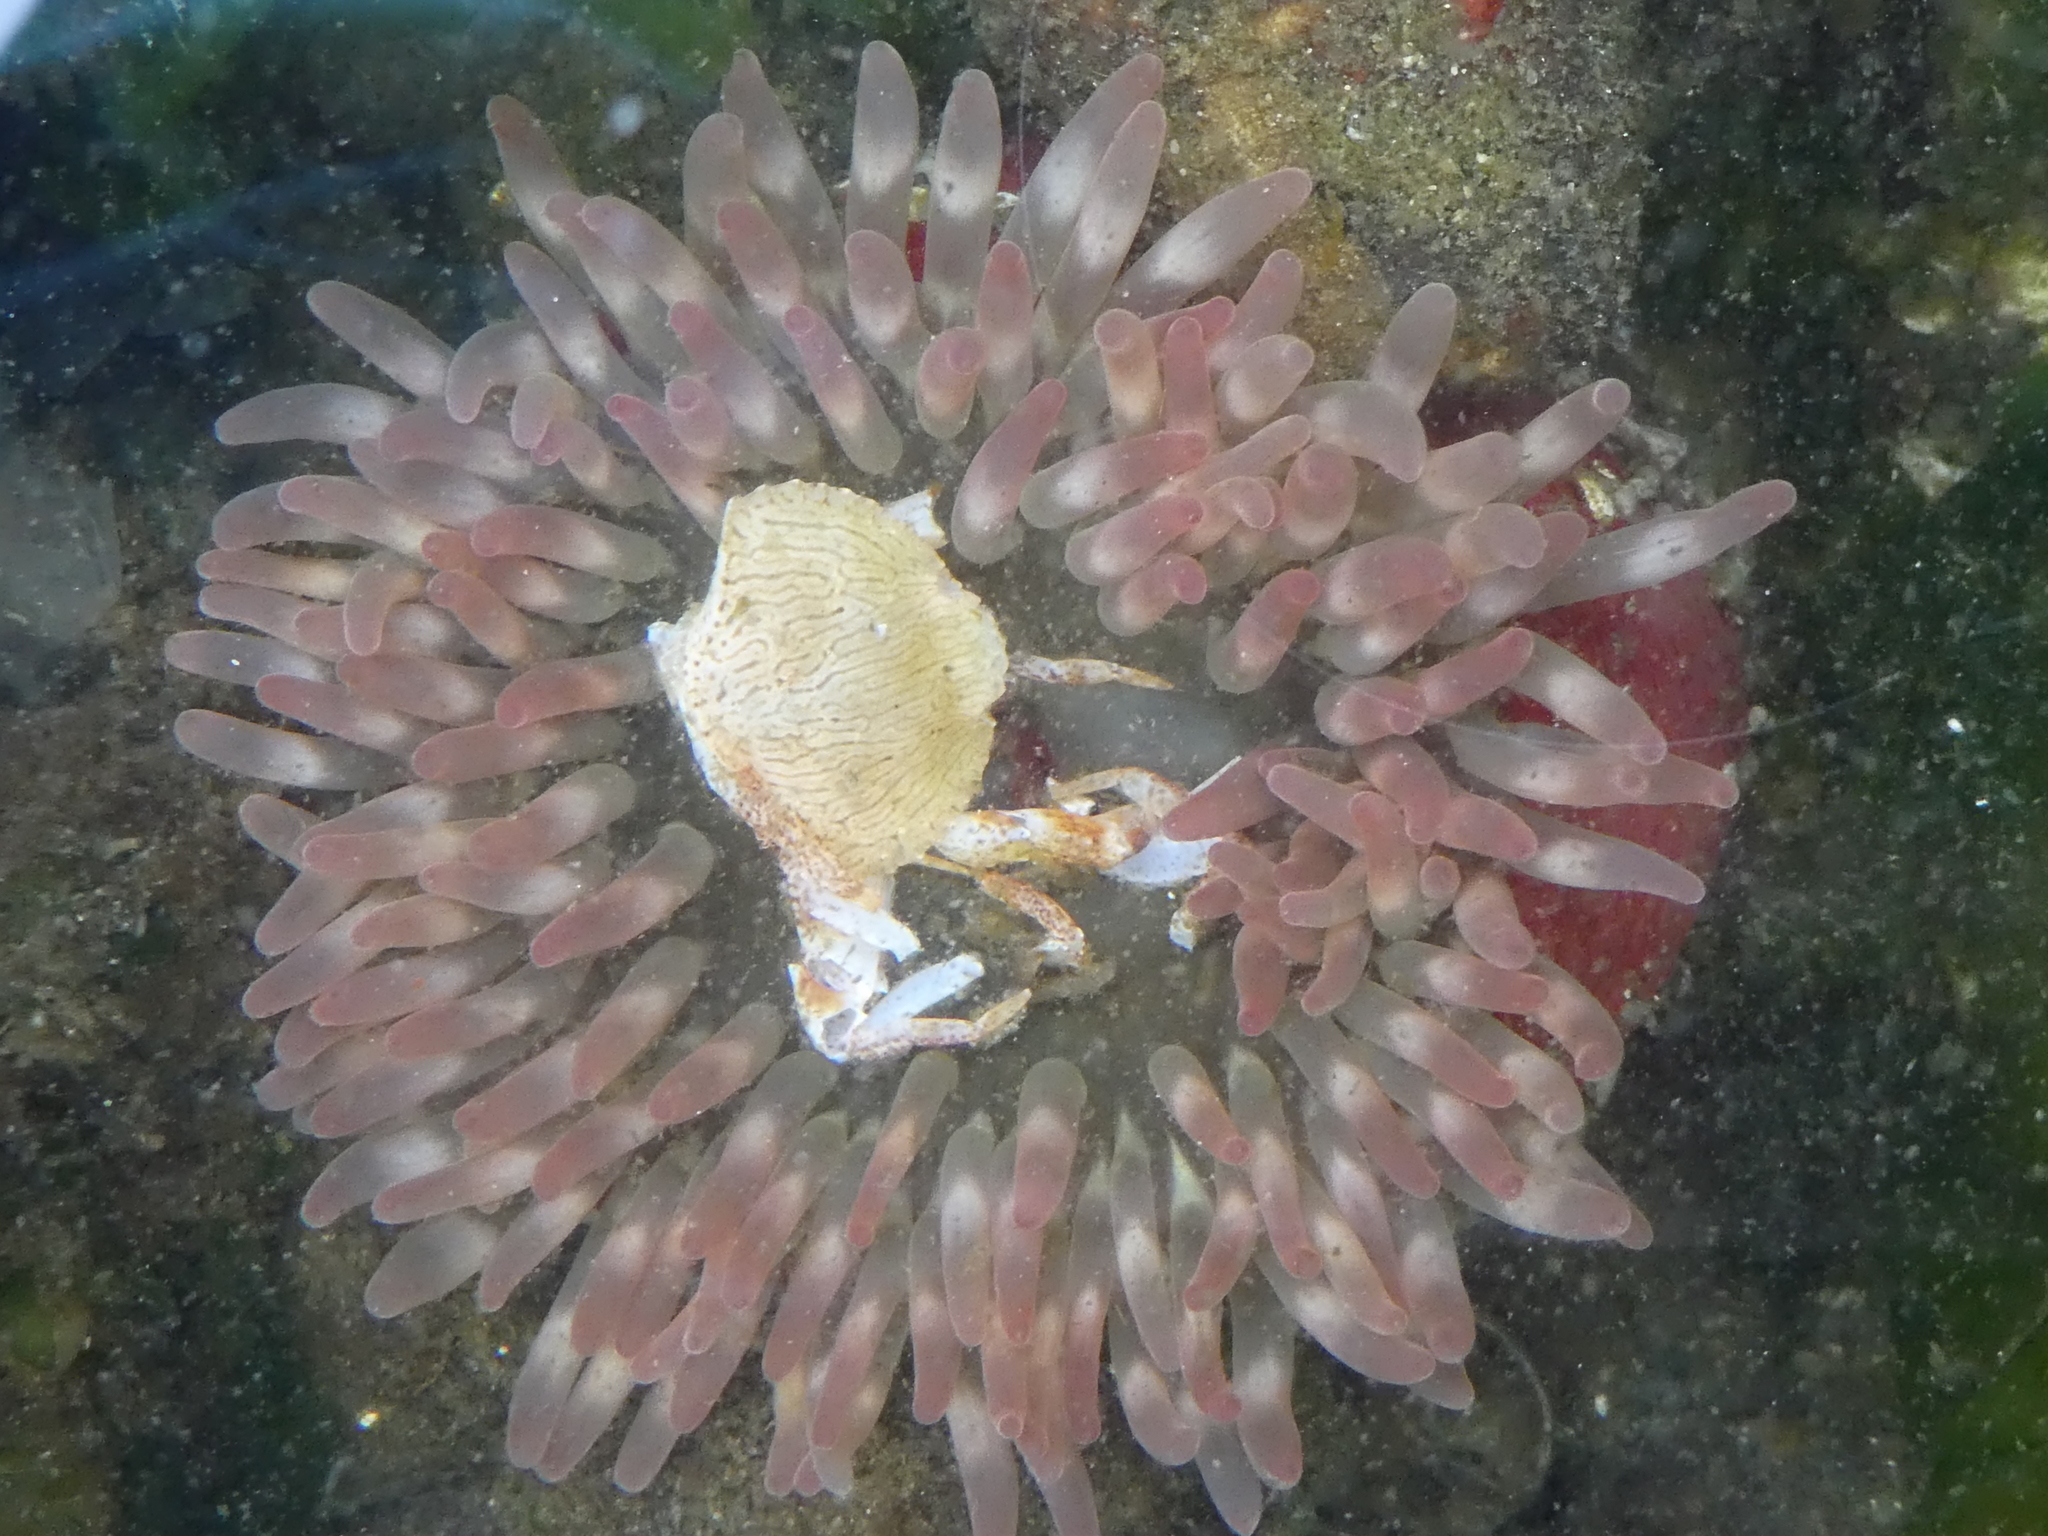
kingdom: Animalia
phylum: Cnidaria
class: Anthozoa
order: Actiniaria
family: Actiniidae
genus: Urticina
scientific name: Urticina clandestina
